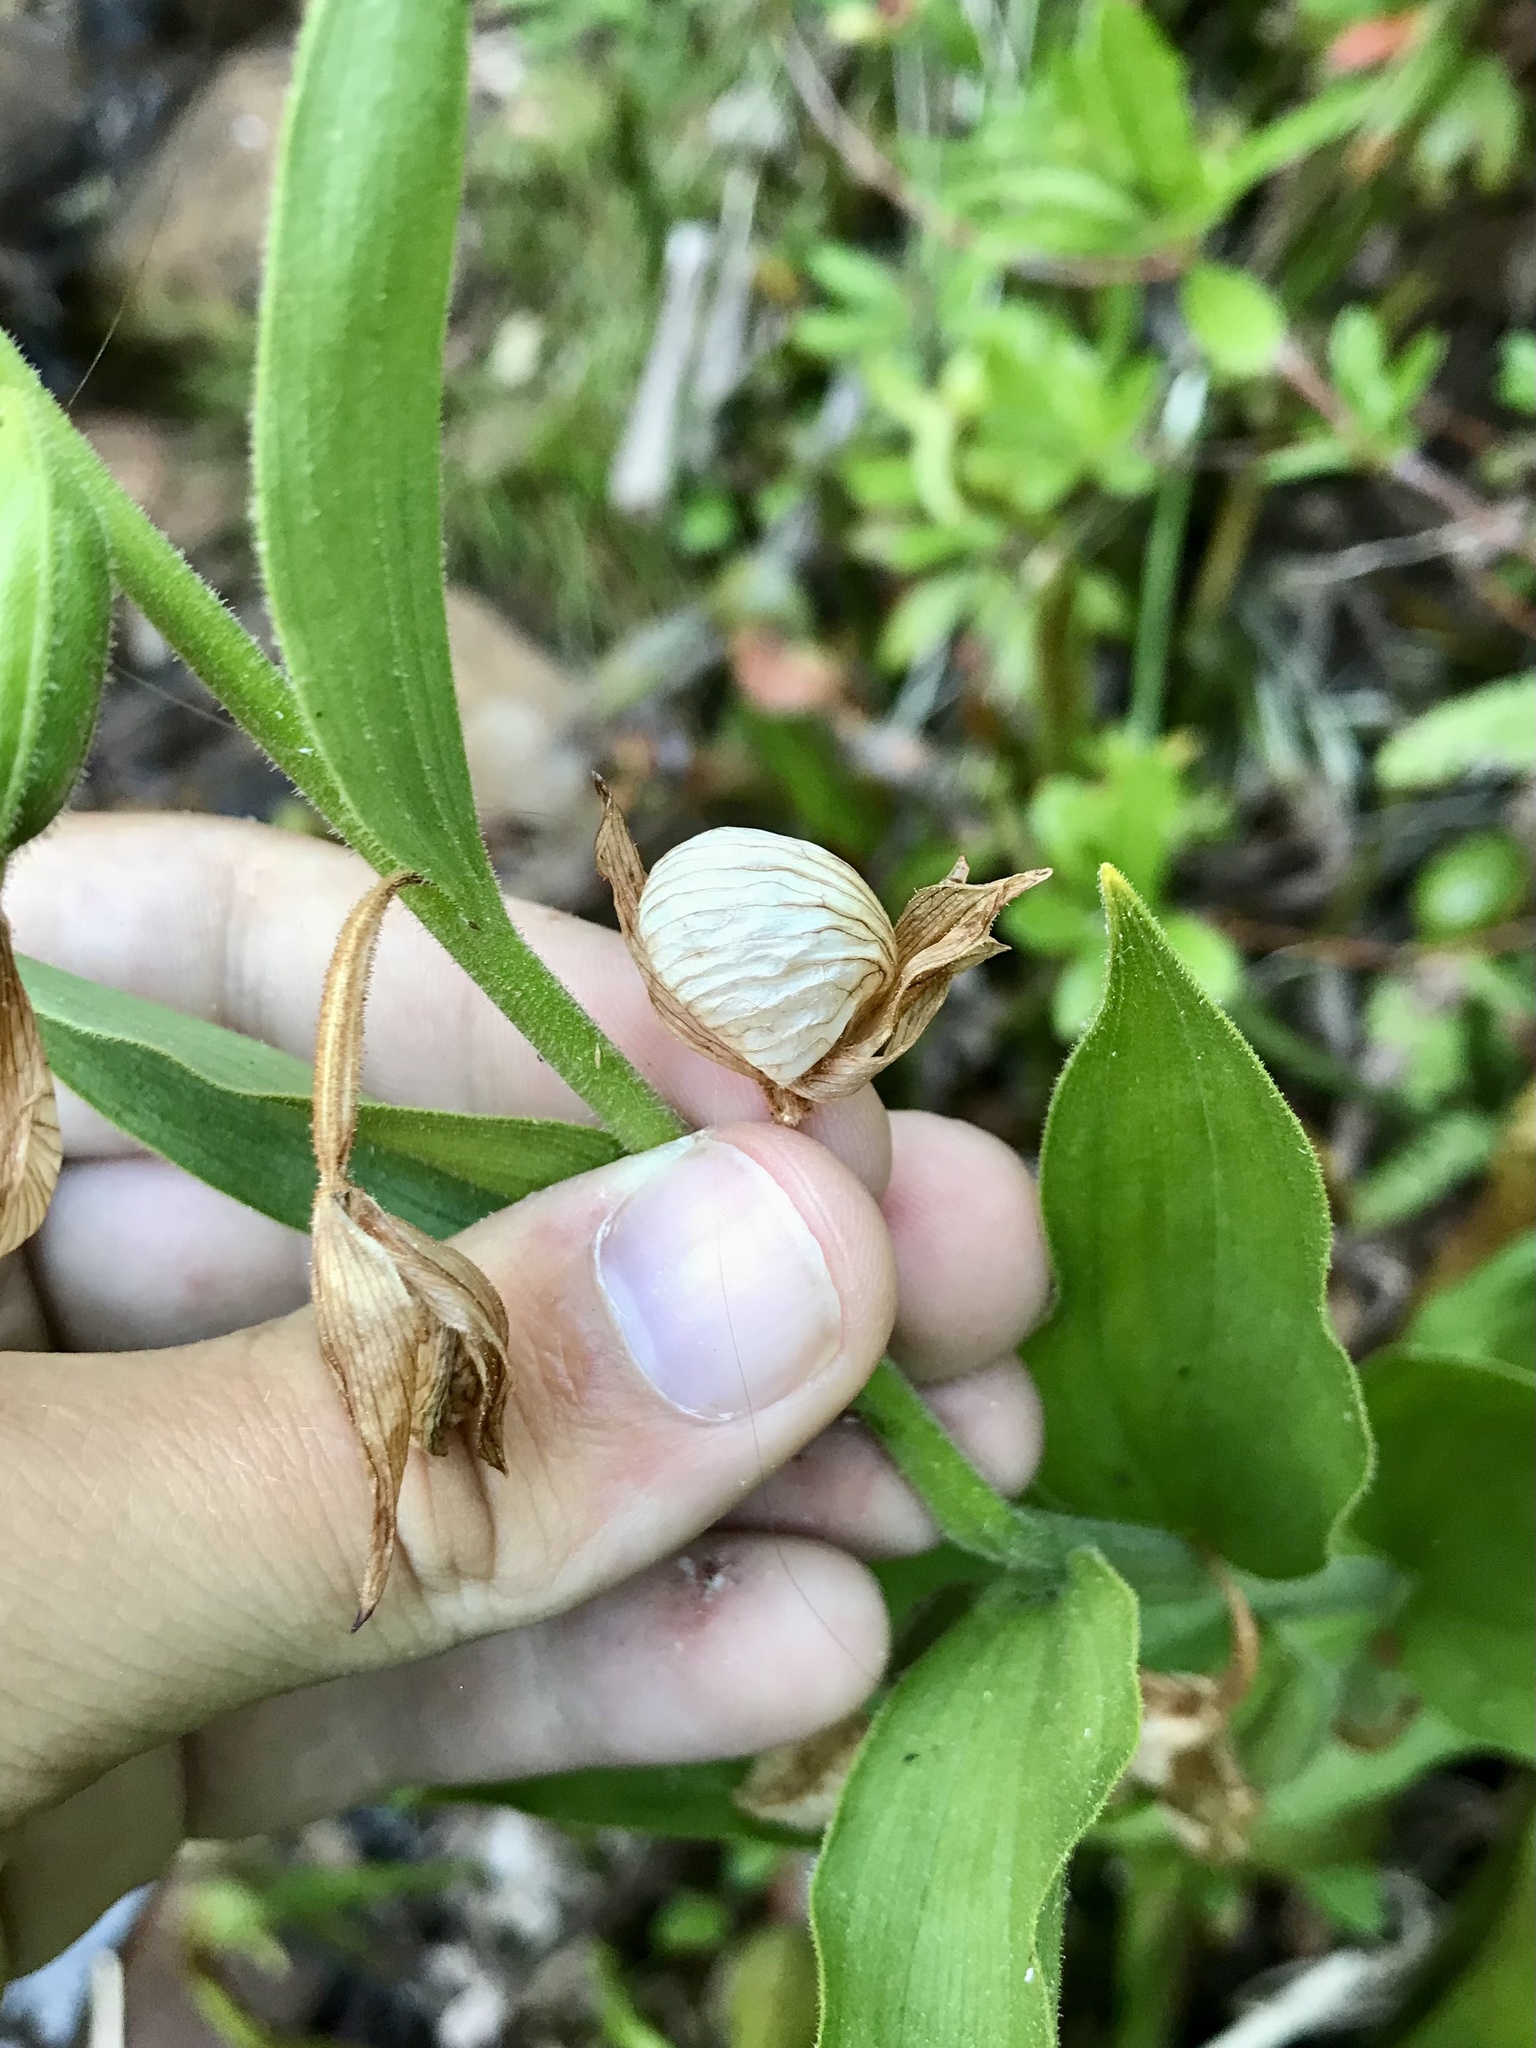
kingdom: Plantae
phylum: Tracheophyta
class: Liliopsida
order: Asparagales
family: Orchidaceae
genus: Cypripedium
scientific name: Cypripedium californicum
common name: California lady's slipper
